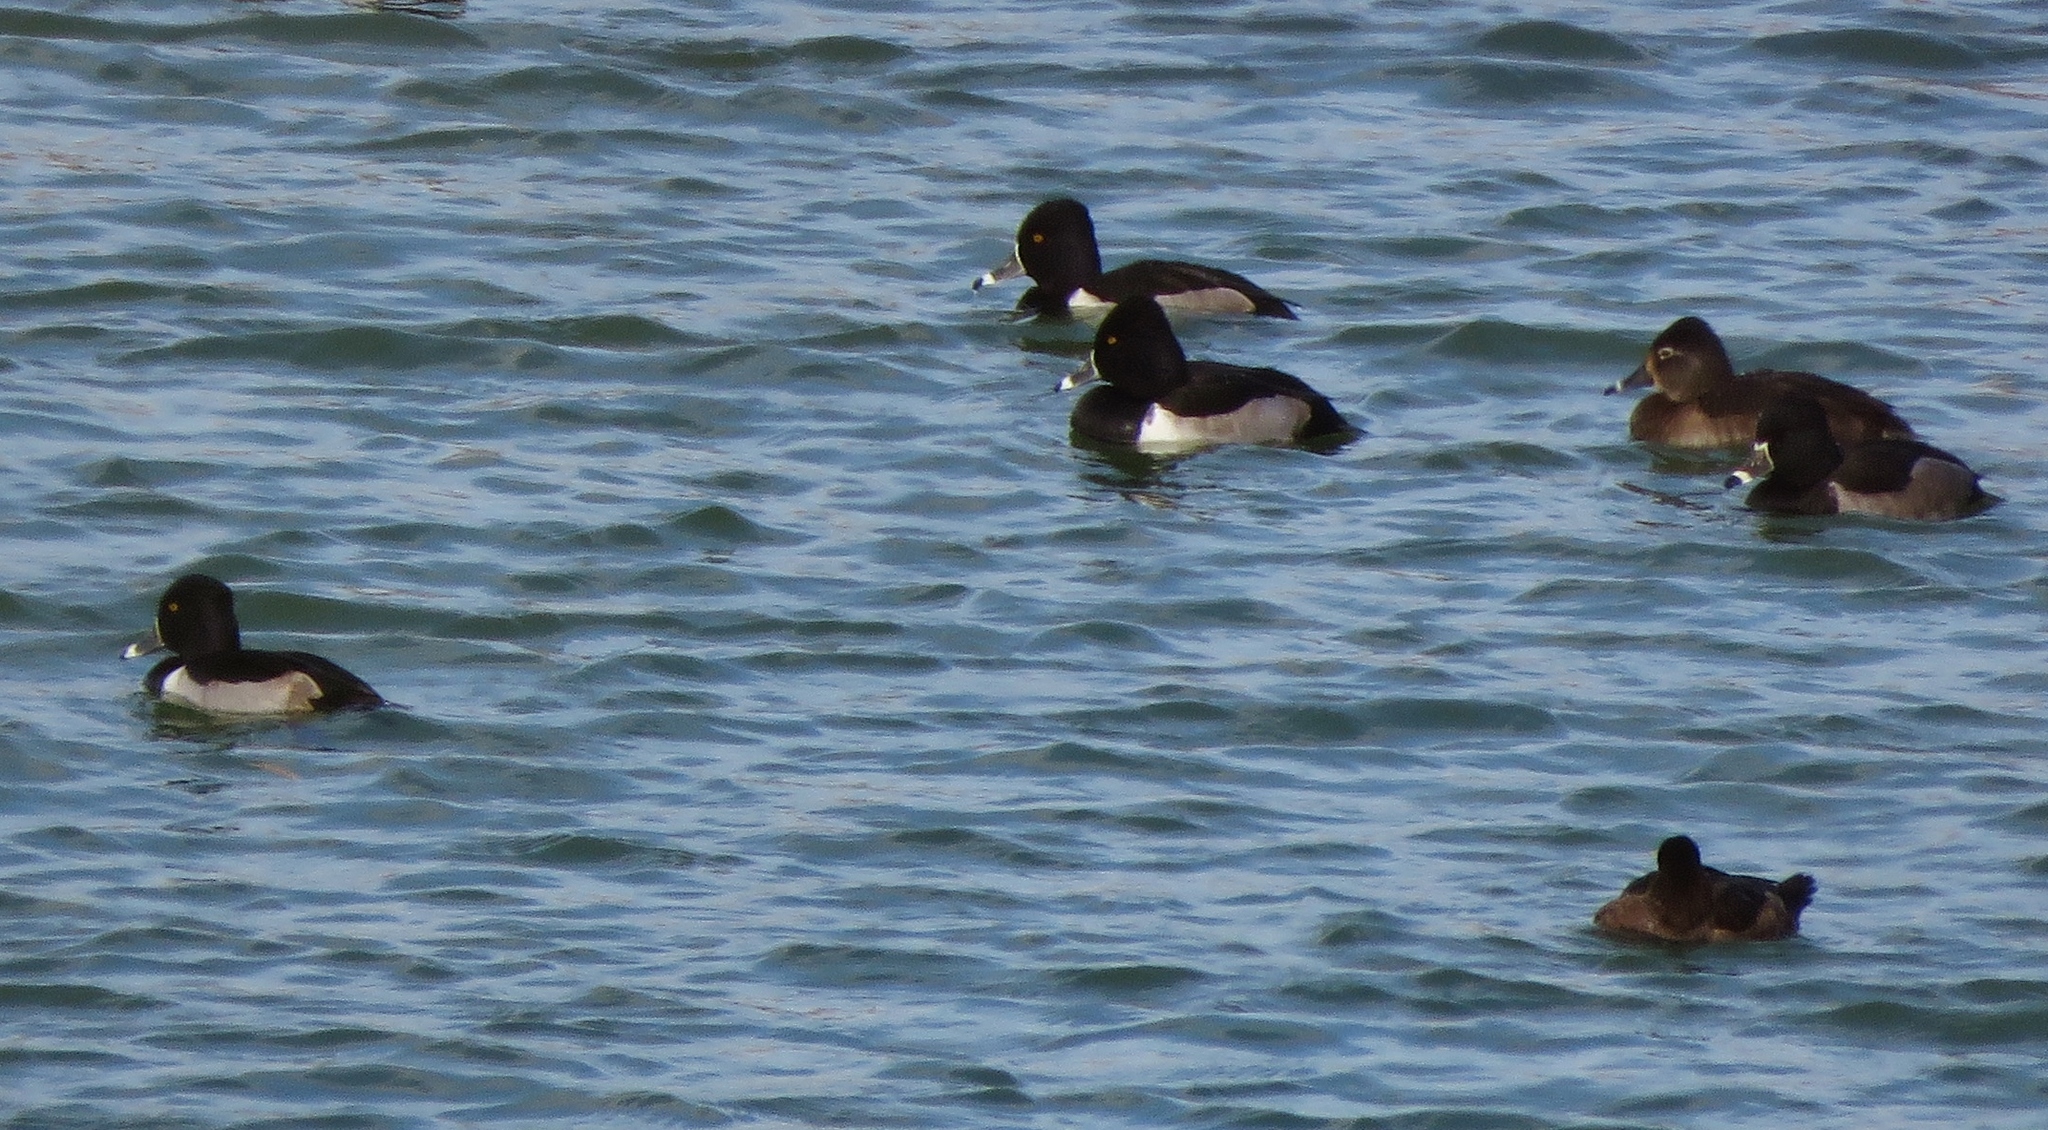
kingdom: Animalia
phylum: Chordata
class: Aves
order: Anseriformes
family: Anatidae
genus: Aythya
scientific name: Aythya collaris
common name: Ring-necked duck
